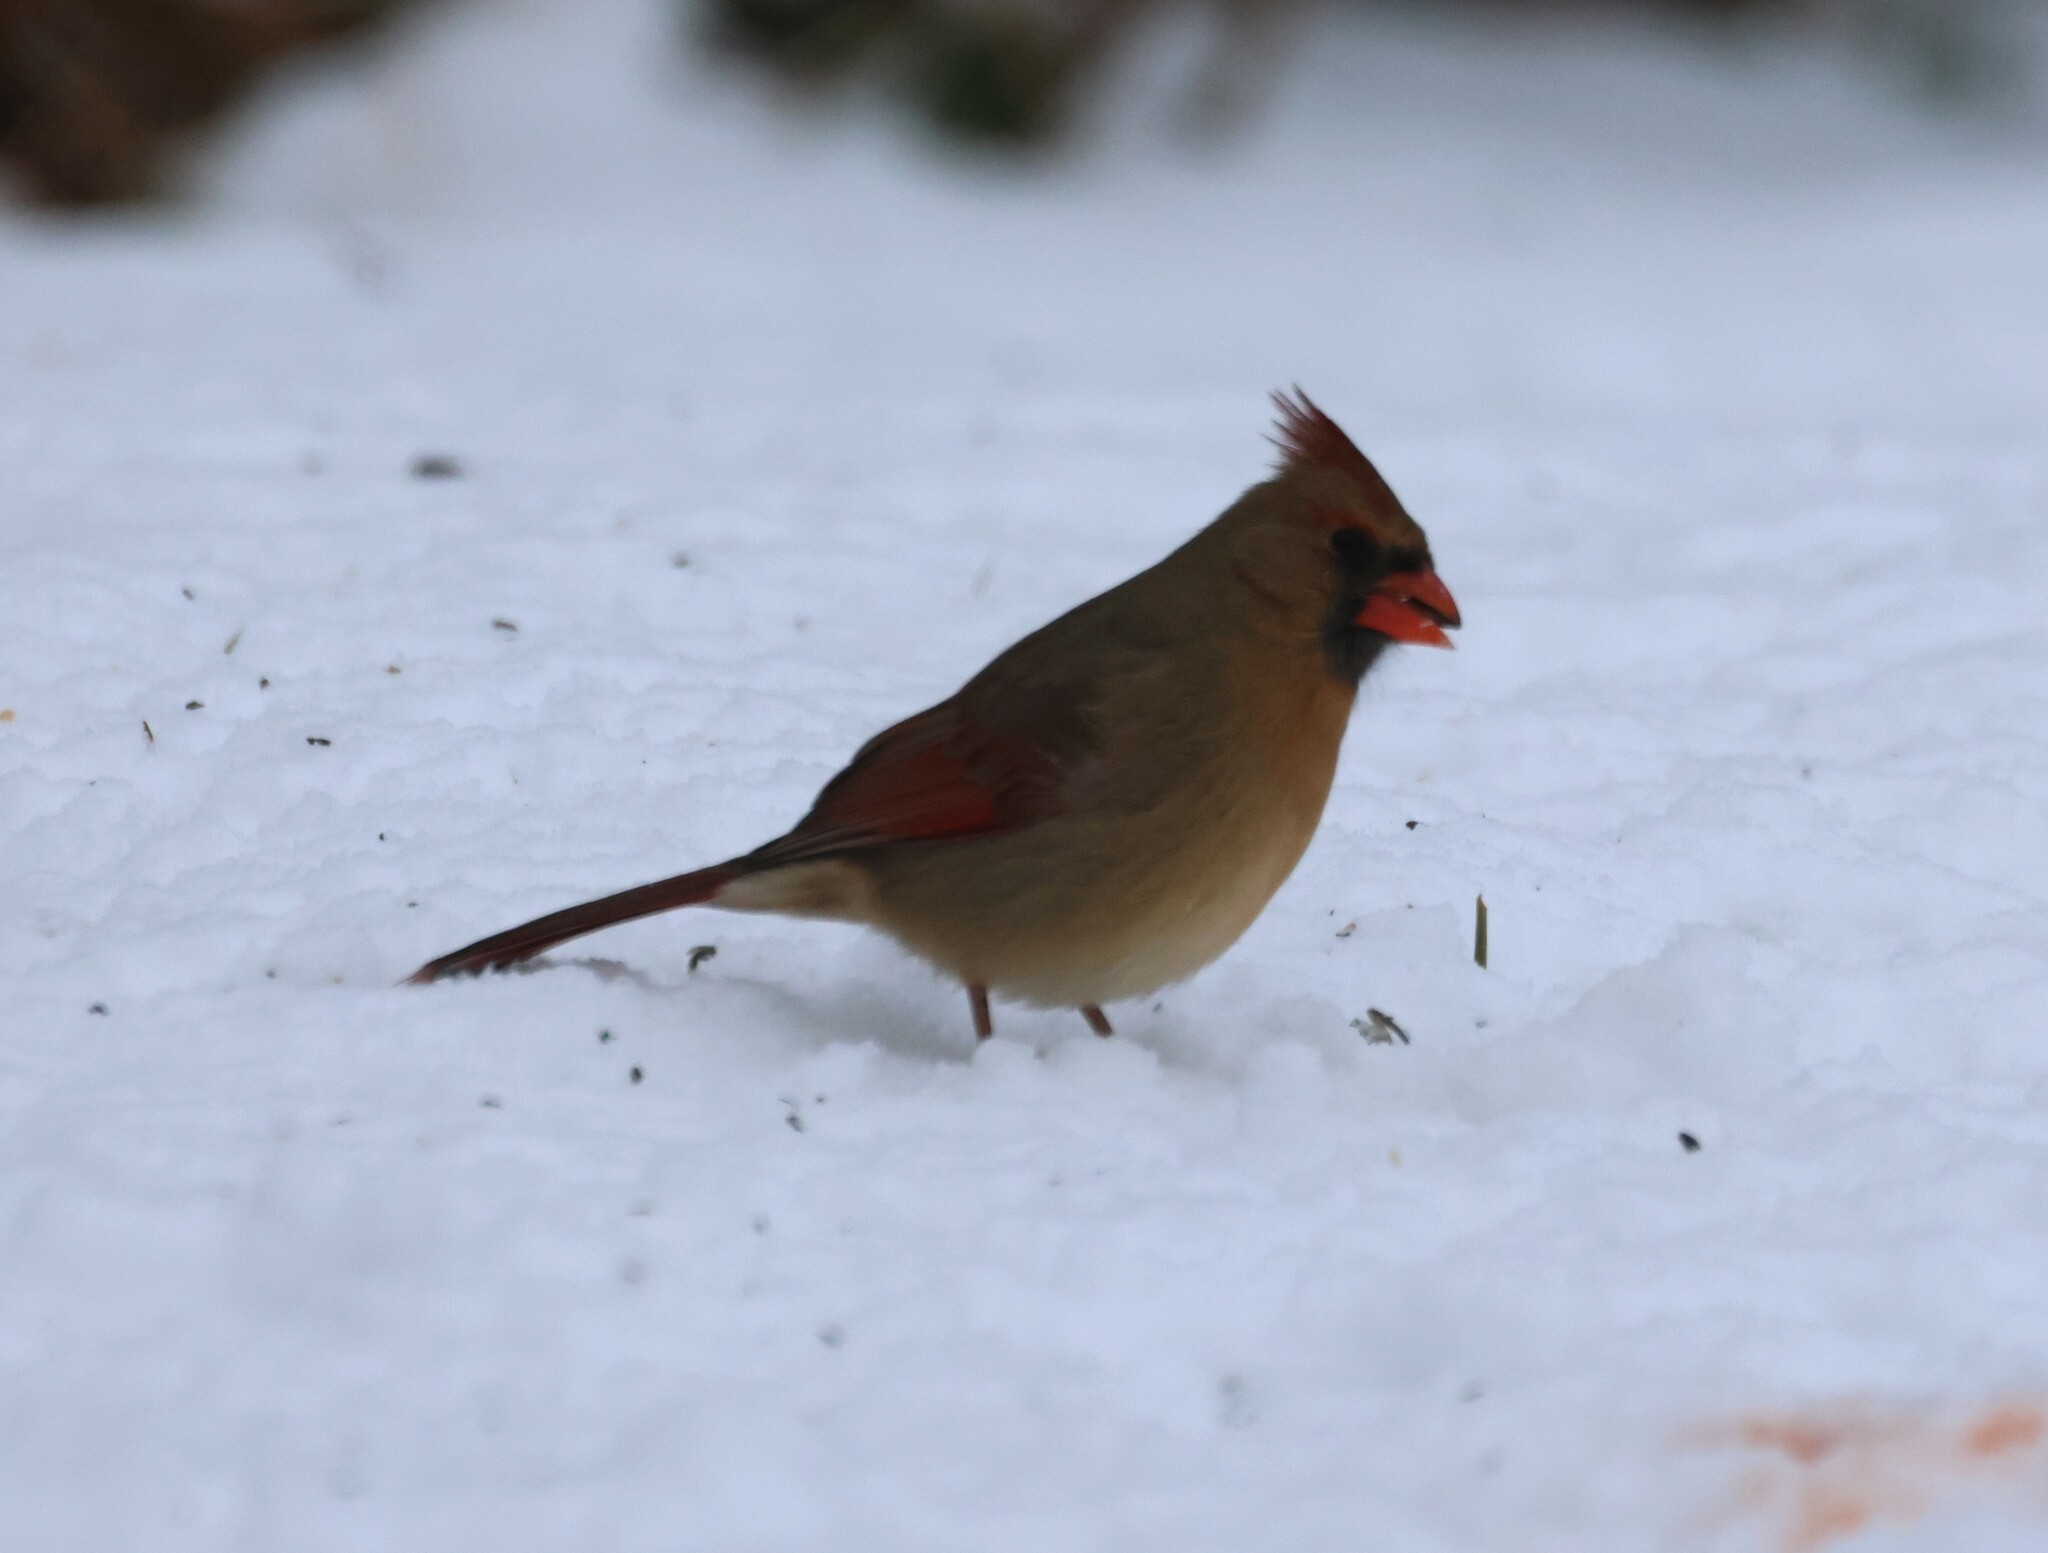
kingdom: Animalia
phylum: Chordata
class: Aves
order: Passeriformes
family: Cardinalidae
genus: Cardinalis
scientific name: Cardinalis cardinalis
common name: Northern cardinal
